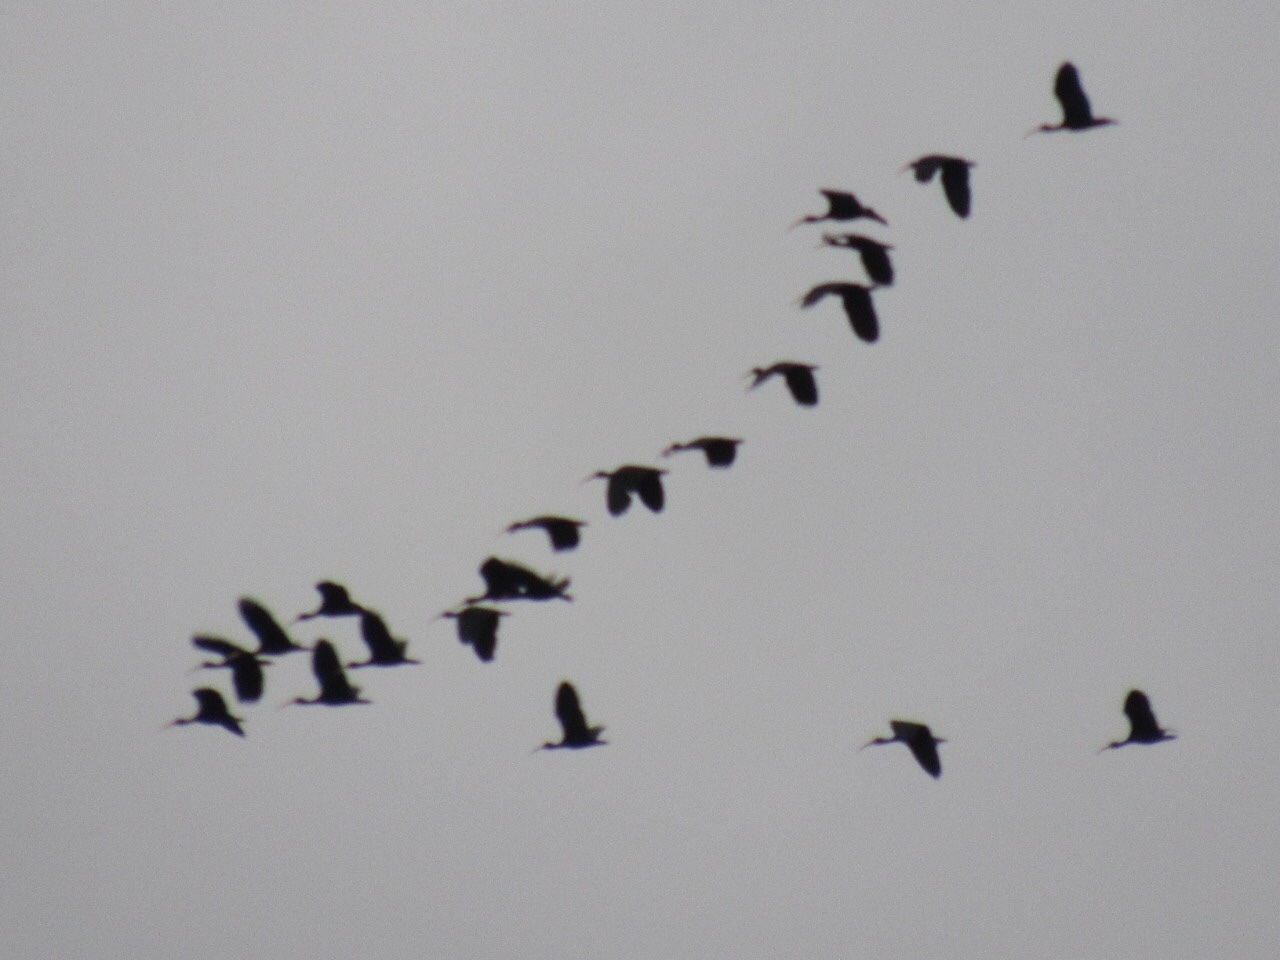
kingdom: Animalia
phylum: Chordata
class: Aves
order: Pelecaniformes
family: Threskiornithidae
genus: Phimosus
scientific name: Phimosus infuscatus
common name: Bare-faced ibis
